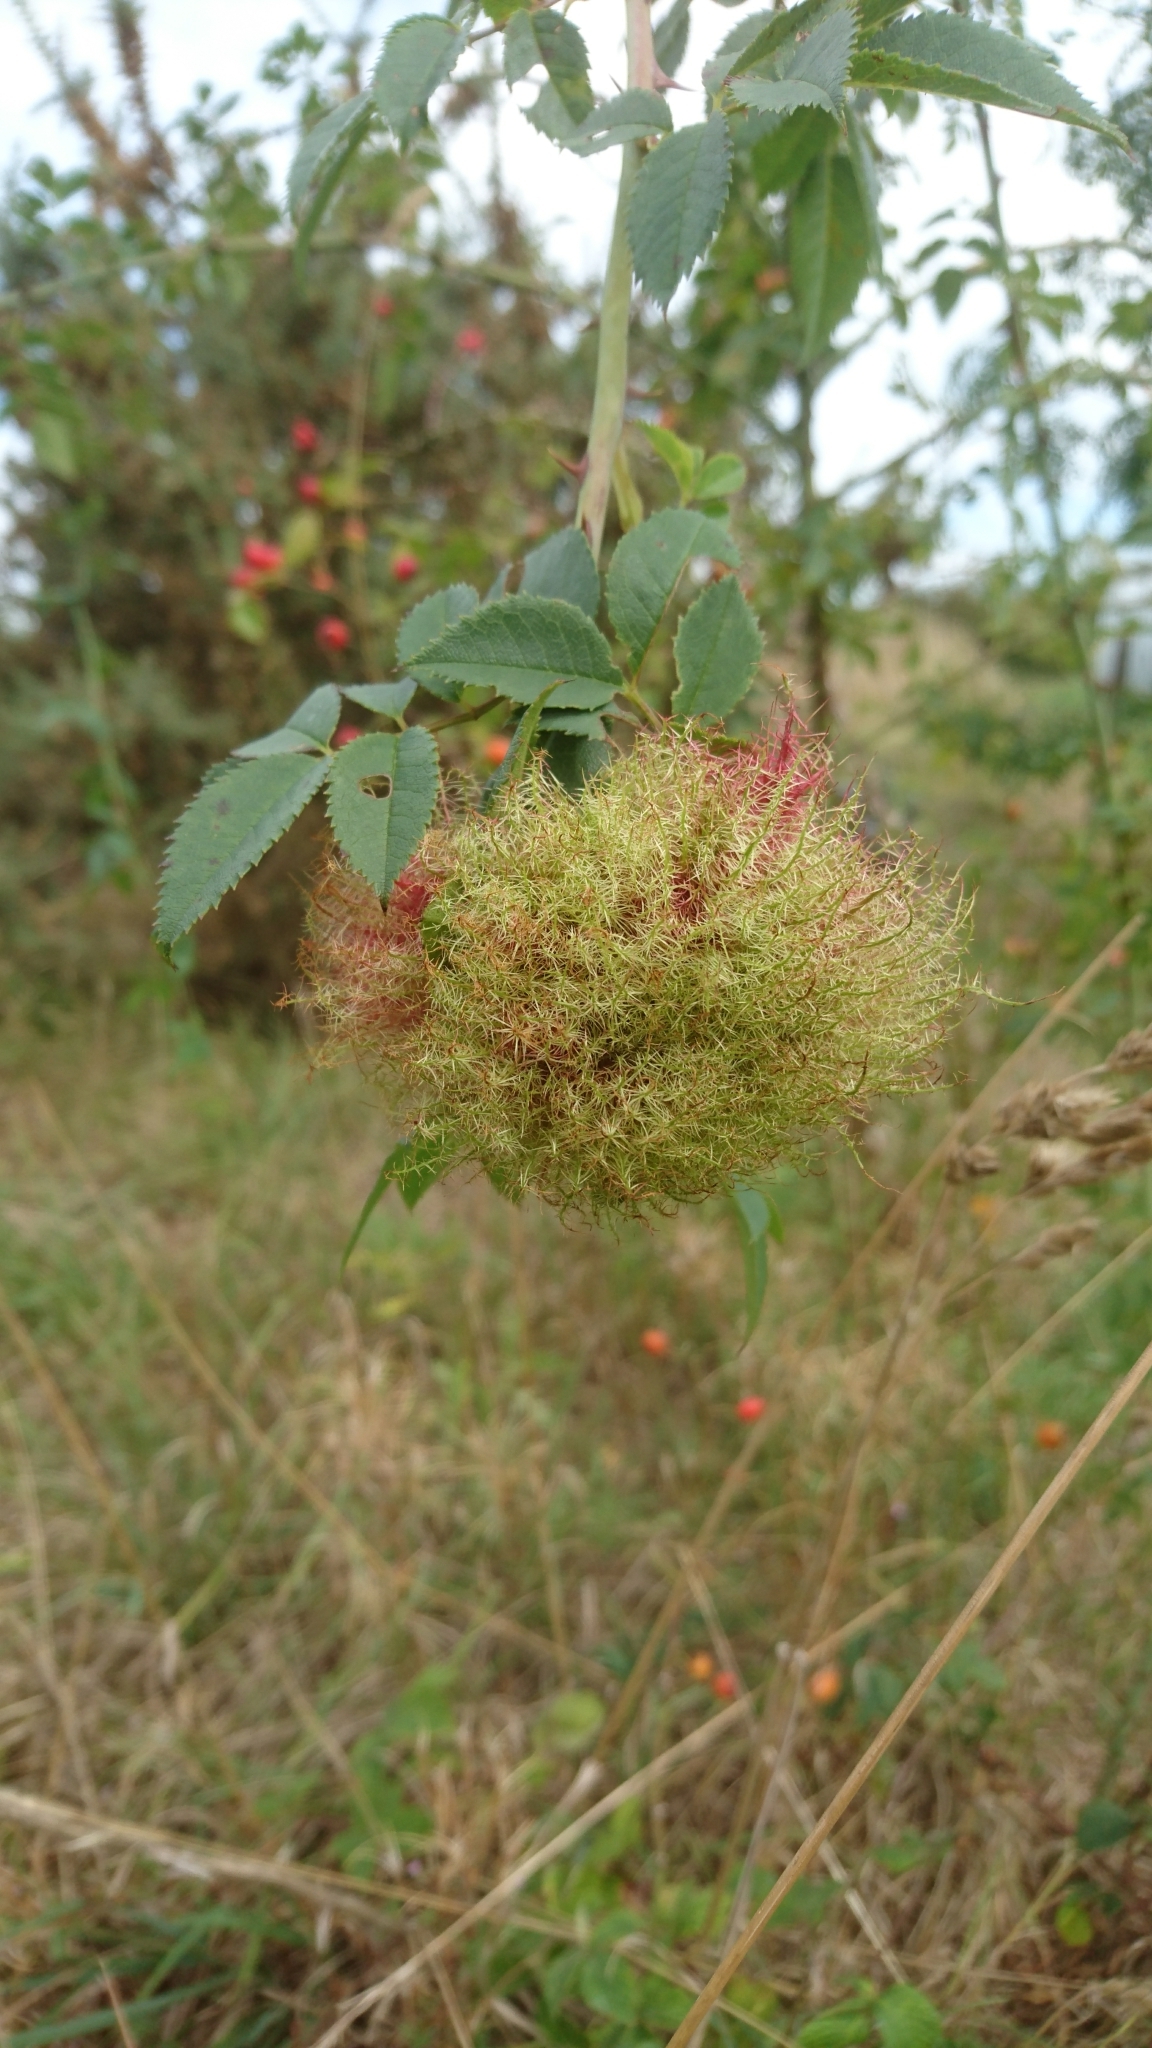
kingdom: Animalia
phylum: Arthropoda
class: Insecta
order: Hymenoptera
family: Cynipidae
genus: Diplolepis
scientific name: Diplolepis rosae
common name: Bedeguar gall
